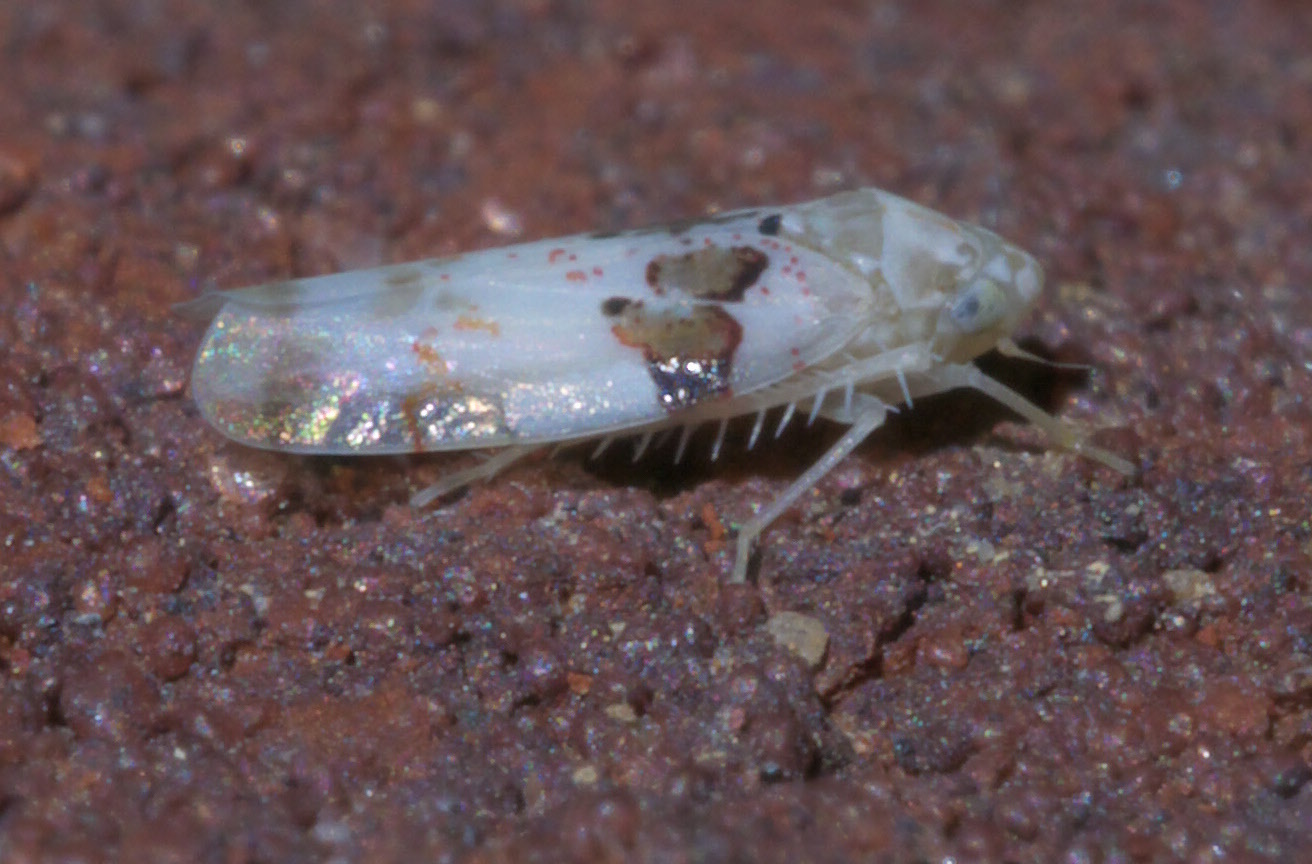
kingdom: Animalia
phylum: Arthropoda
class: Insecta
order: Hemiptera
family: Cicadellidae
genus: Hymetta
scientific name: Hymetta anthisma
